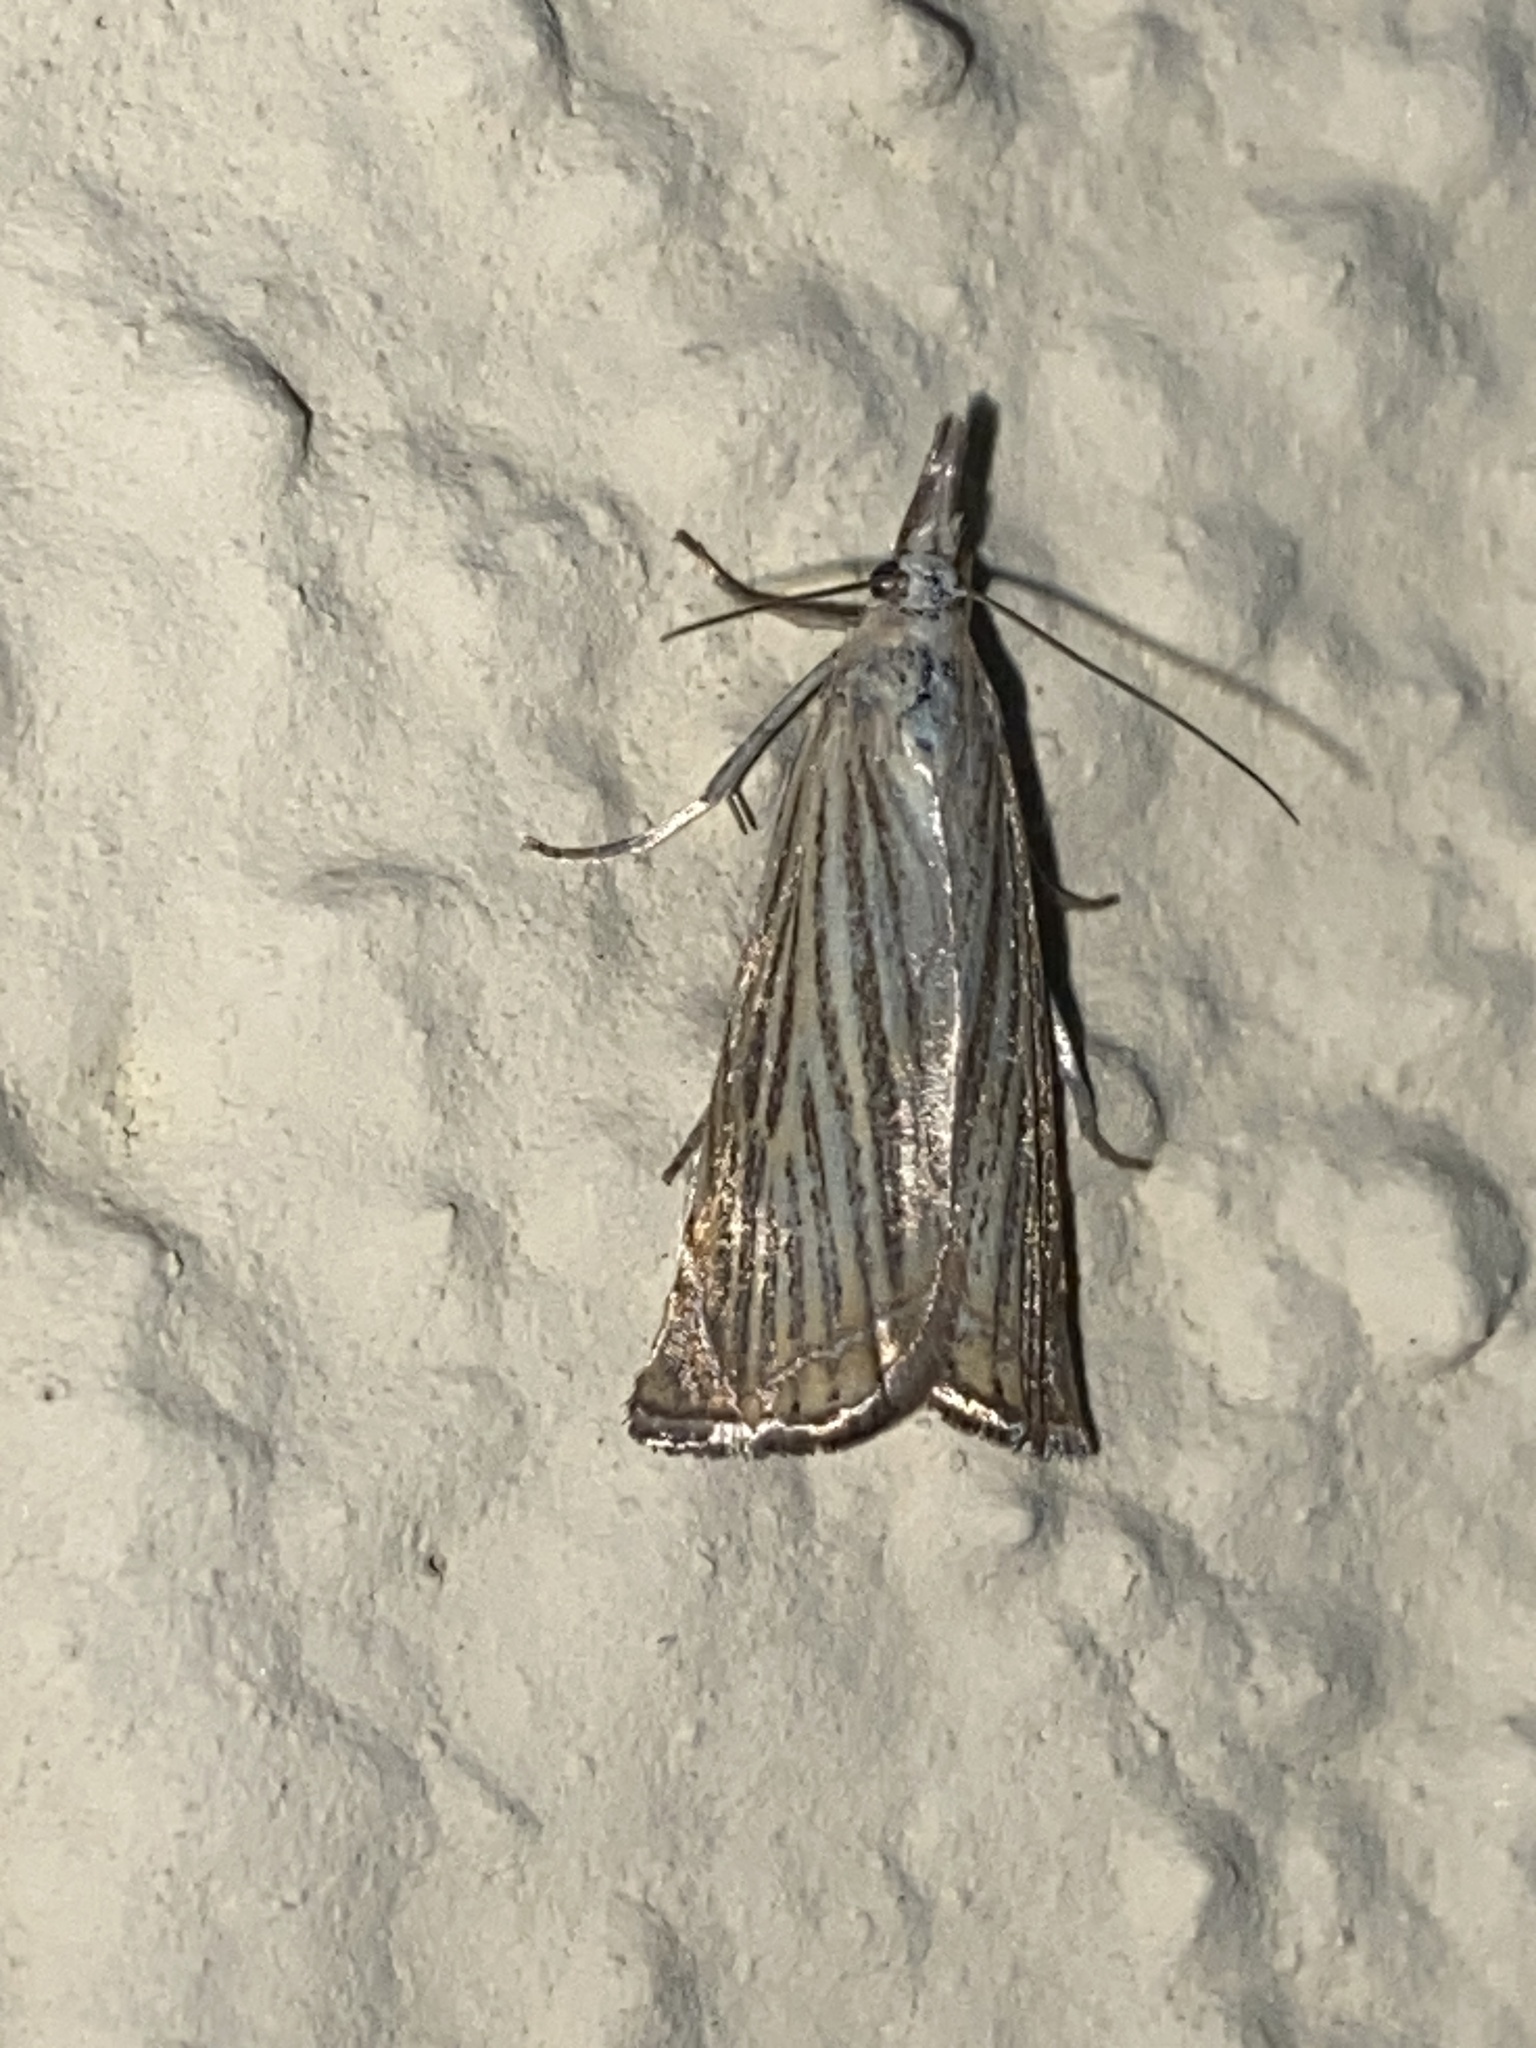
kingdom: Animalia
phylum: Arthropoda
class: Insecta
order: Lepidoptera
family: Crambidae
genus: Chrysoteuchia
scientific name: Chrysoteuchia culmella
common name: Garden grass-veneer
